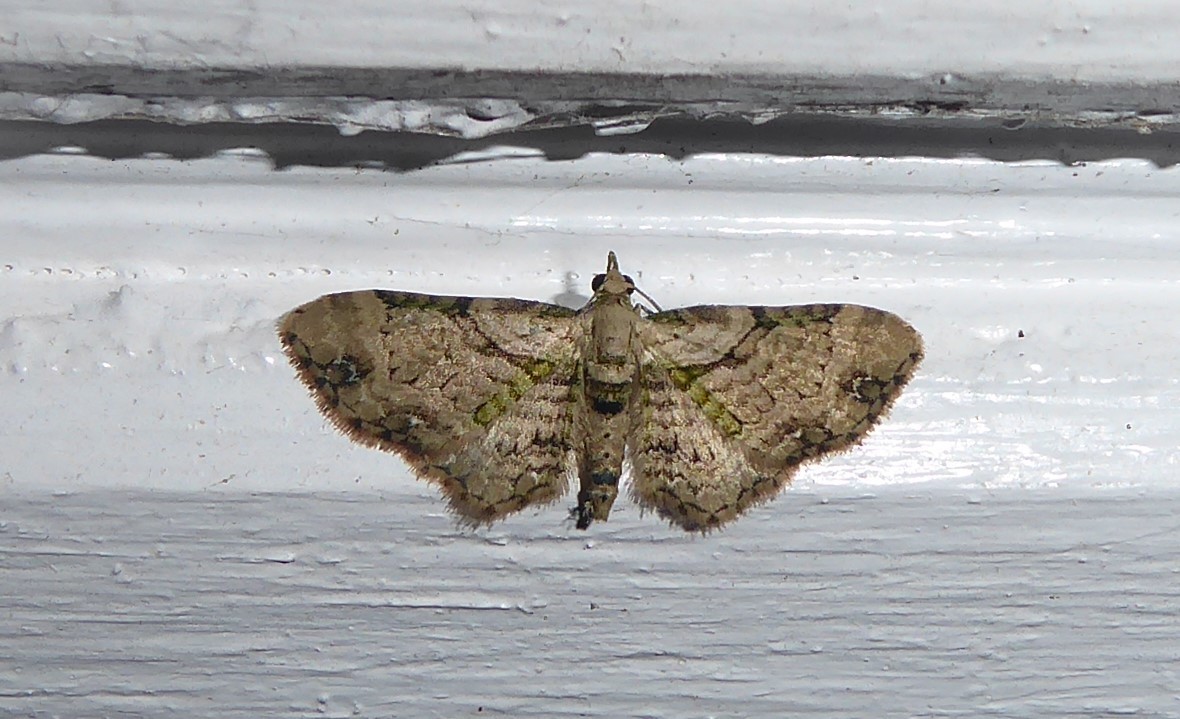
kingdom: Animalia
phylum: Arthropoda
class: Insecta
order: Lepidoptera
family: Geometridae
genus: Chloroclystis
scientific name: Chloroclystis
